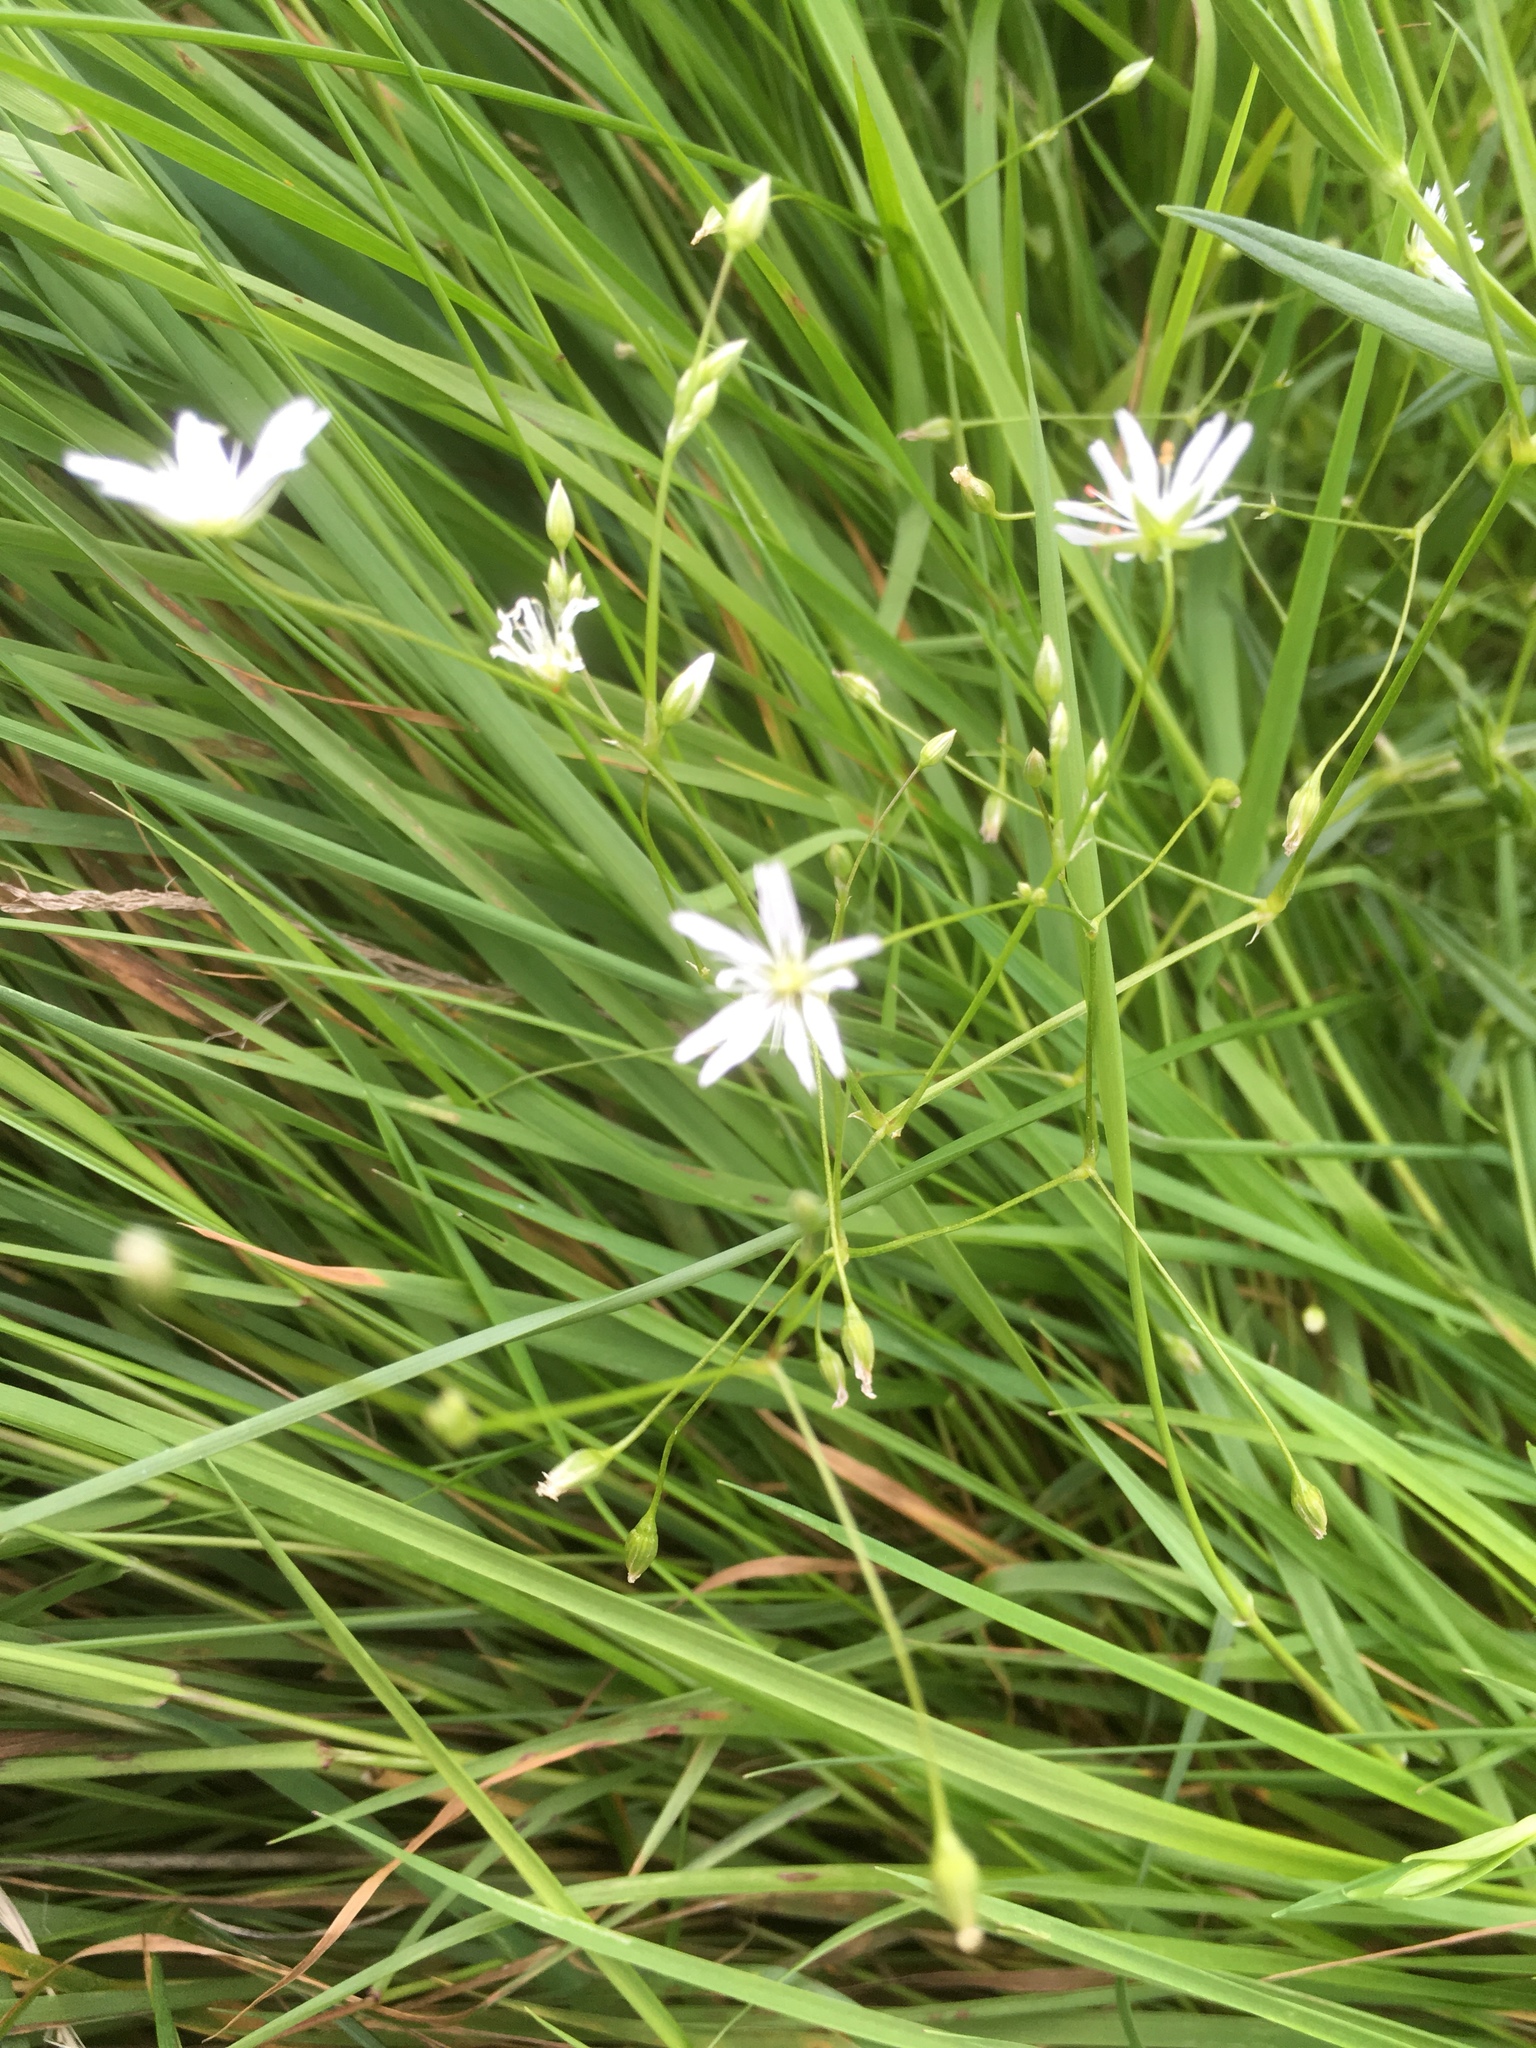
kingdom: Plantae
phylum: Tracheophyta
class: Magnoliopsida
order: Caryophyllales
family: Caryophyllaceae
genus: Stellaria
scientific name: Stellaria graminea
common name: Grass-like starwort
